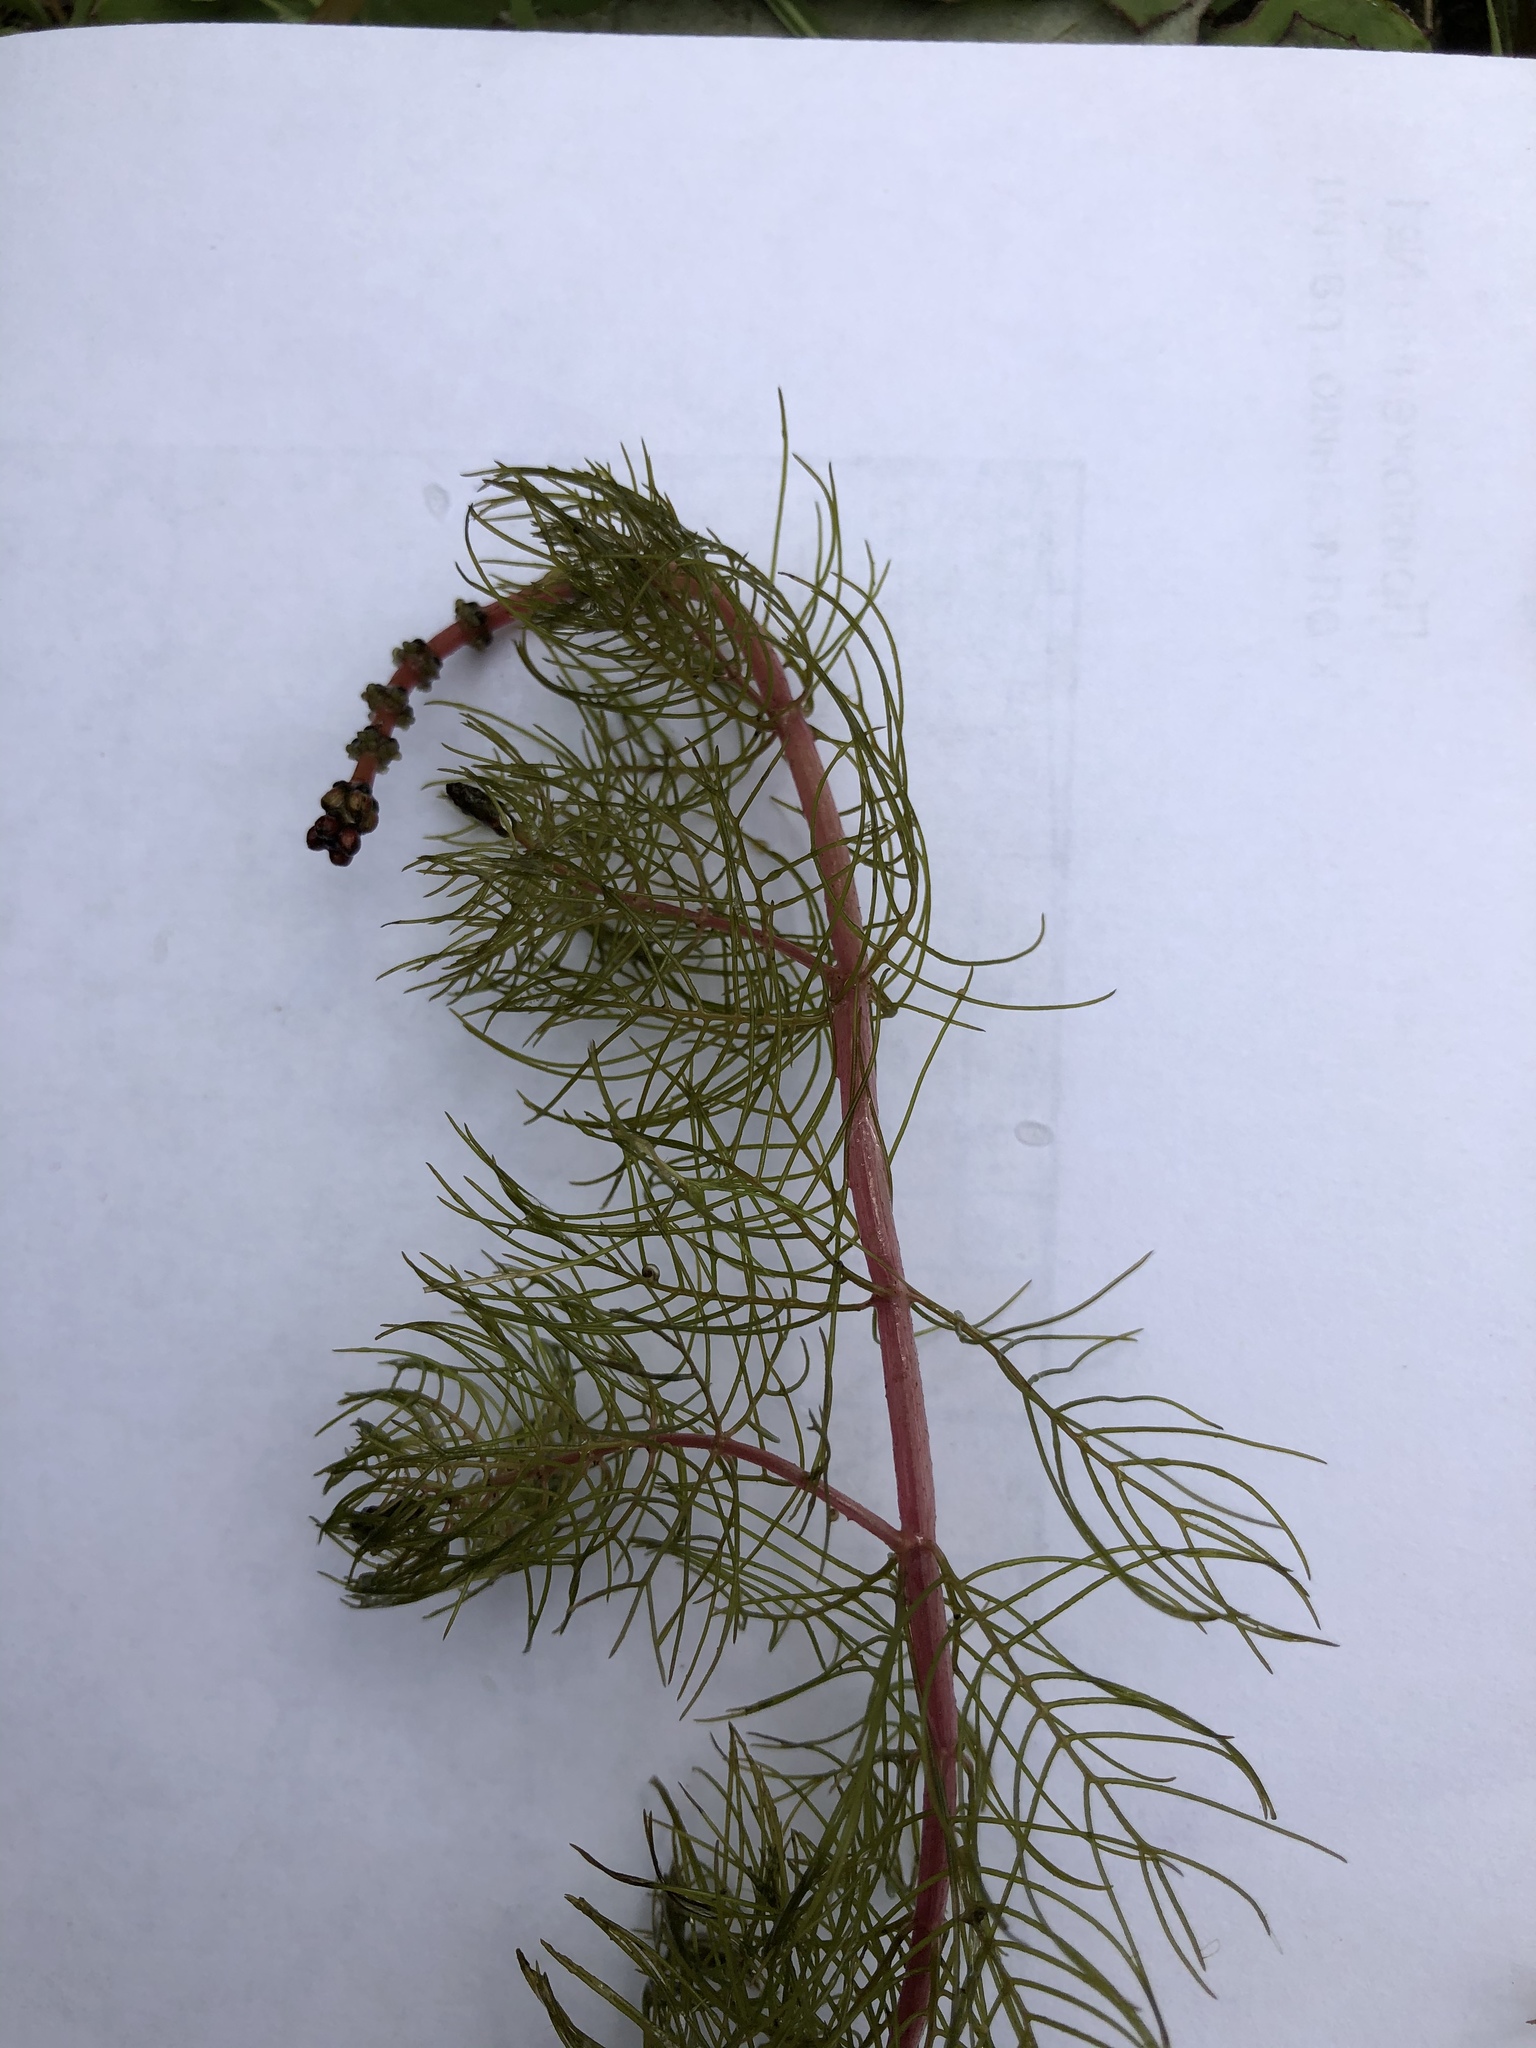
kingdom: Plantae
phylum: Tracheophyta
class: Magnoliopsida
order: Saxifragales
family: Haloragaceae
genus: Myriophyllum
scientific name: Myriophyllum sibiricum
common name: Siberian water-milfoil
